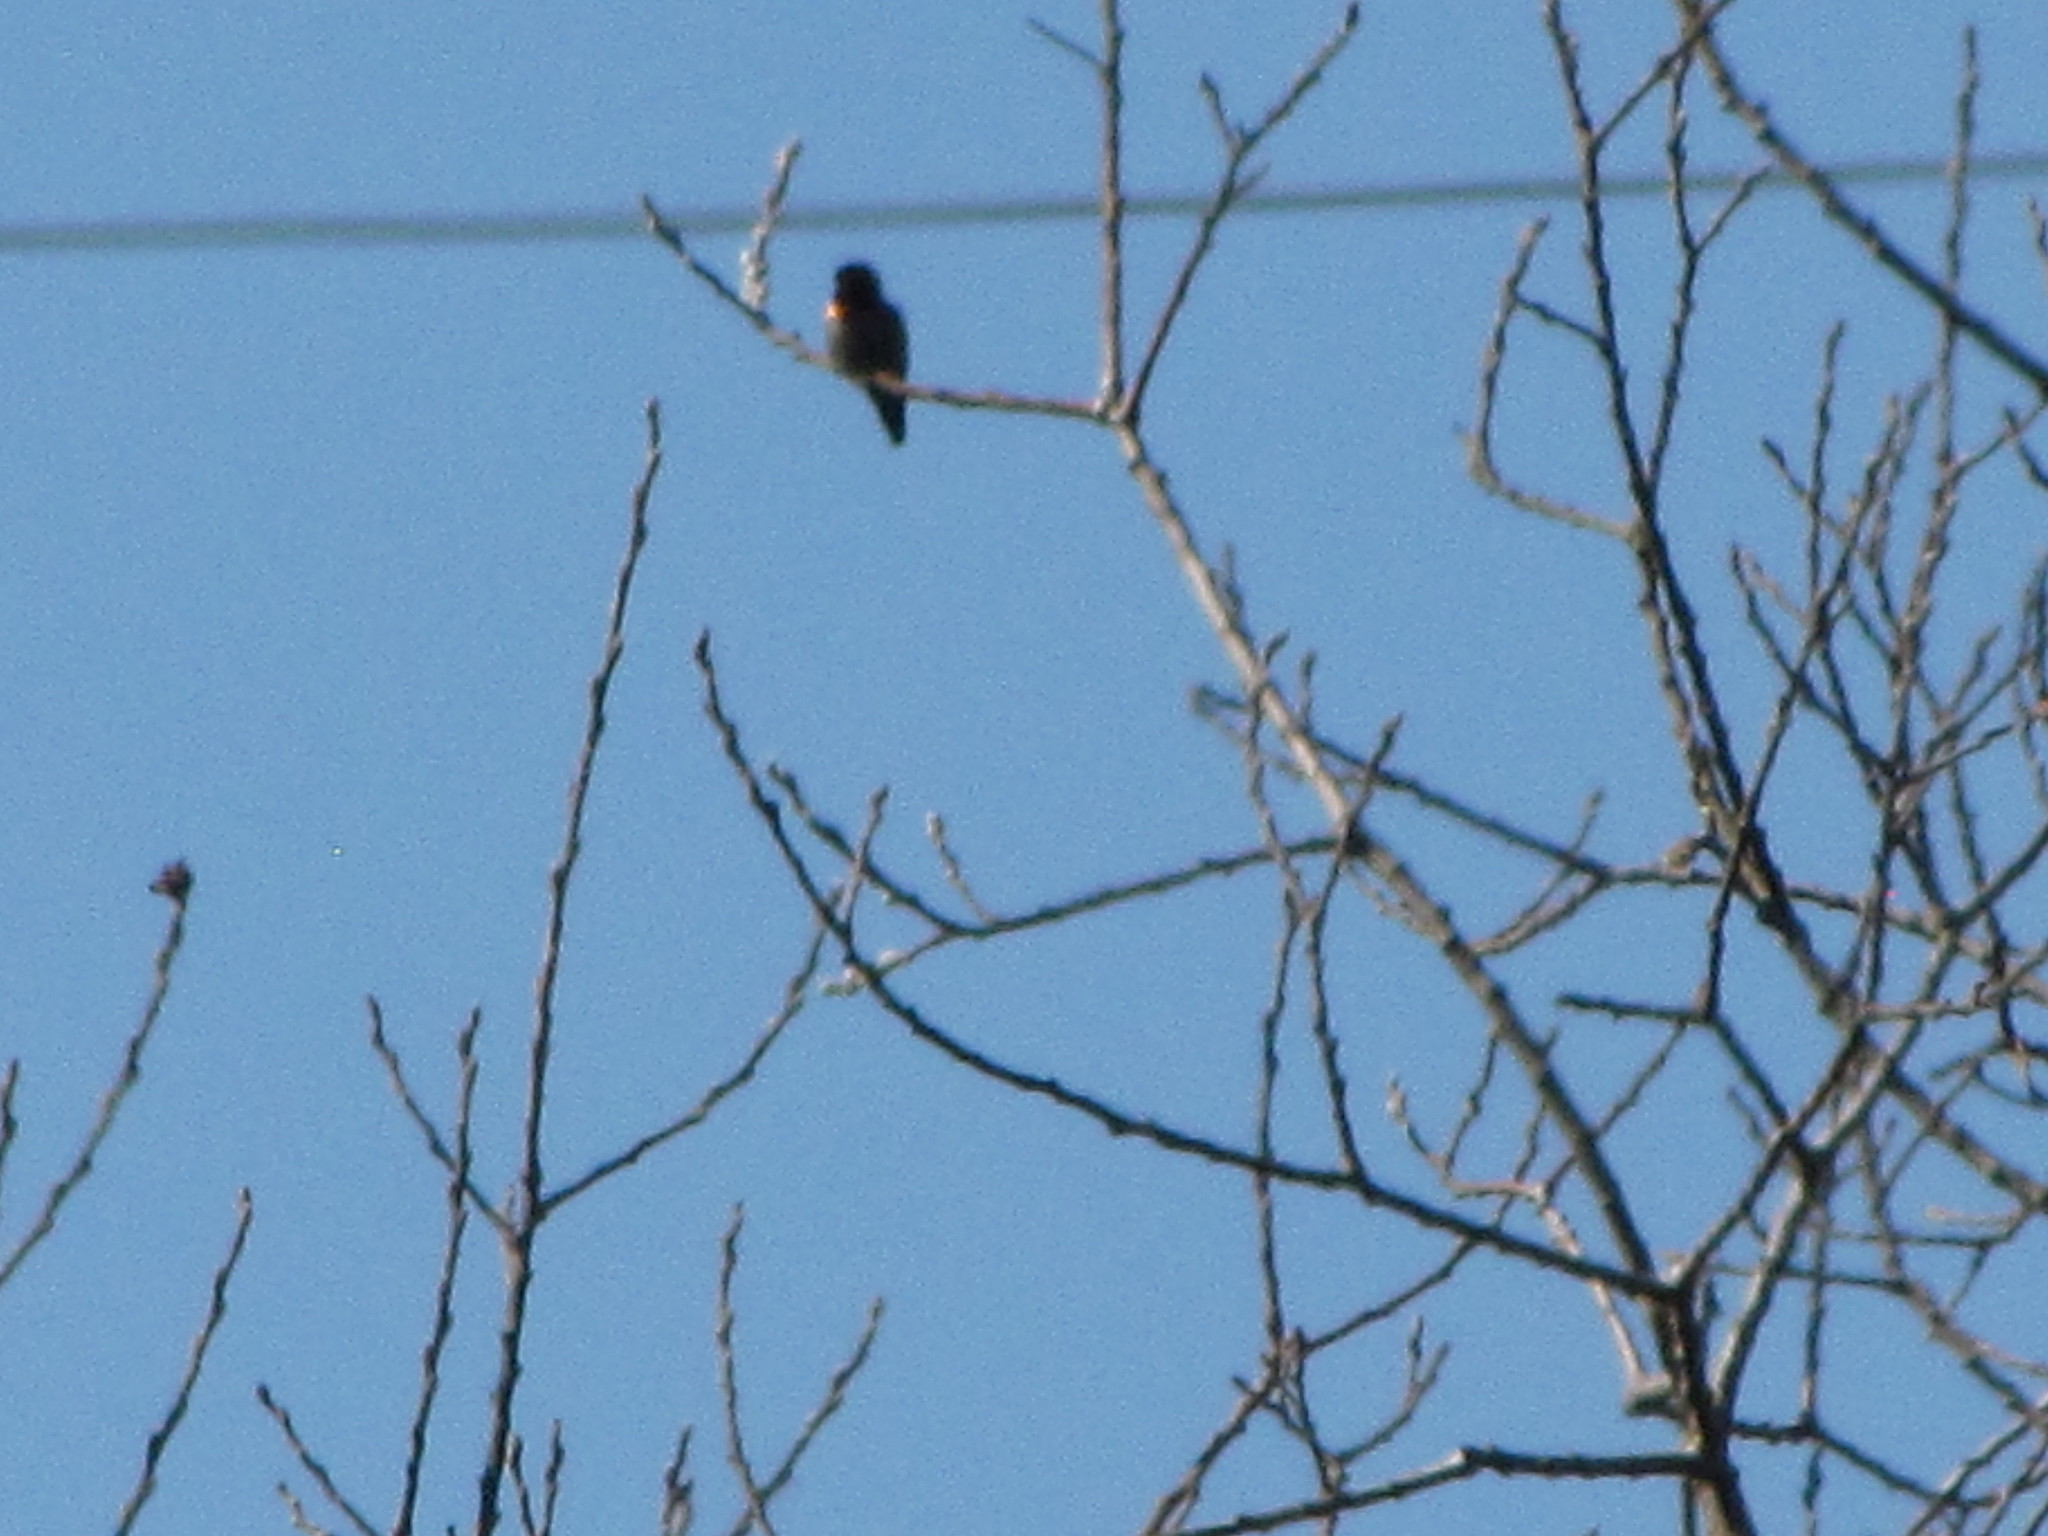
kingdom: Animalia
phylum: Chordata
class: Aves
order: Apodiformes
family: Trochilidae
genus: Calypte
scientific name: Calypte anna
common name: Anna's hummingbird
